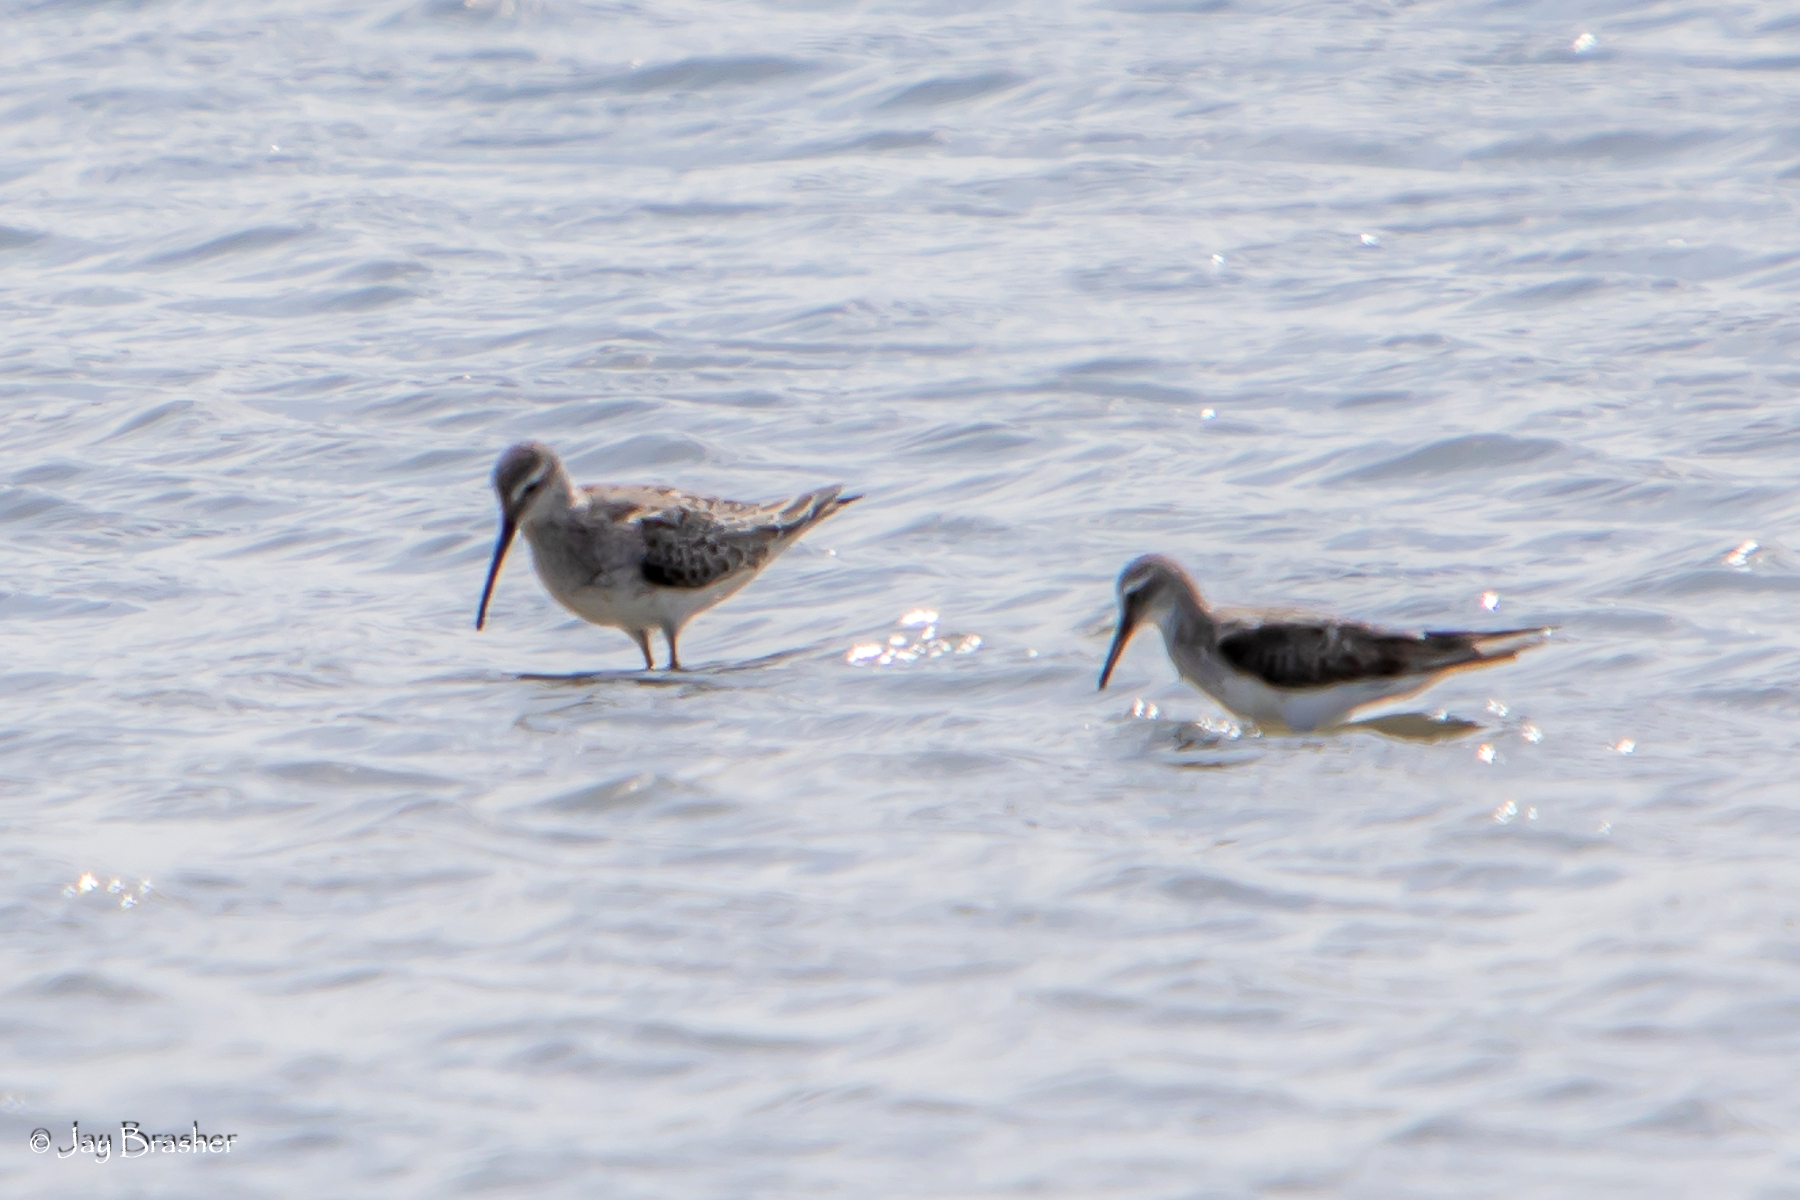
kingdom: Animalia
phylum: Chordata
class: Aves
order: Charadriiformes
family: Scolopacidae
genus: Calidris
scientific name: Calidris himantopus
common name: Stilt sandpiper
